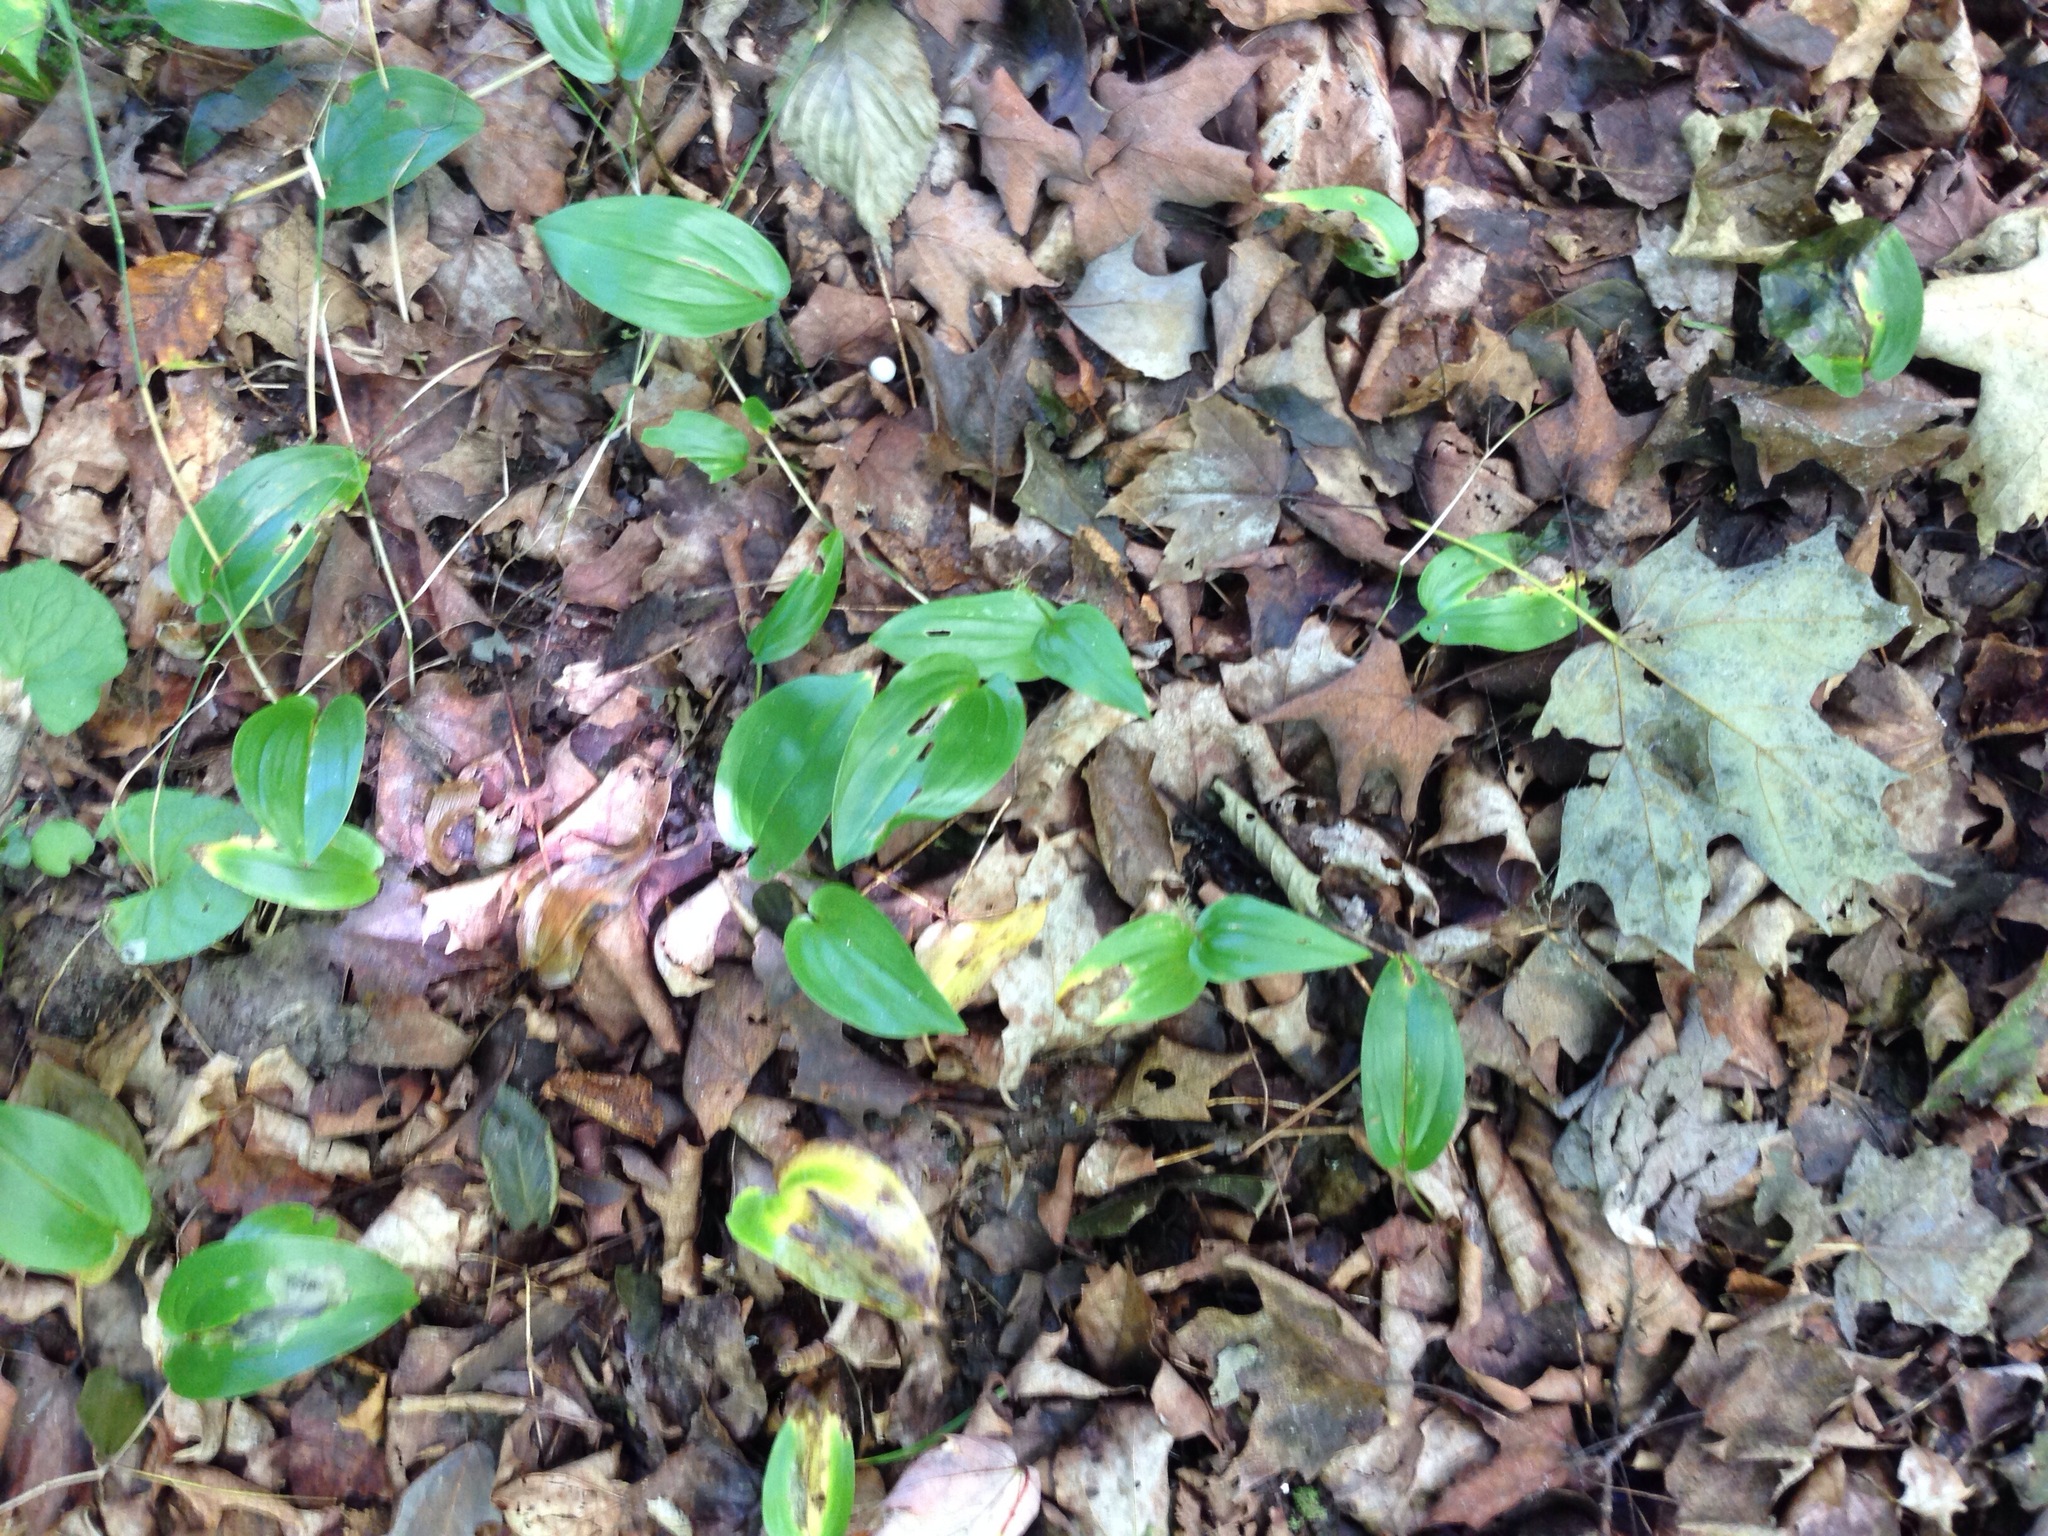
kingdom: Plantae
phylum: Tracheophyta
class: Liliopsida
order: Asparagales
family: Asparagaceae
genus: Maianthemum
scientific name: Maianthemum canadense
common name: False lily-of-the-valley
